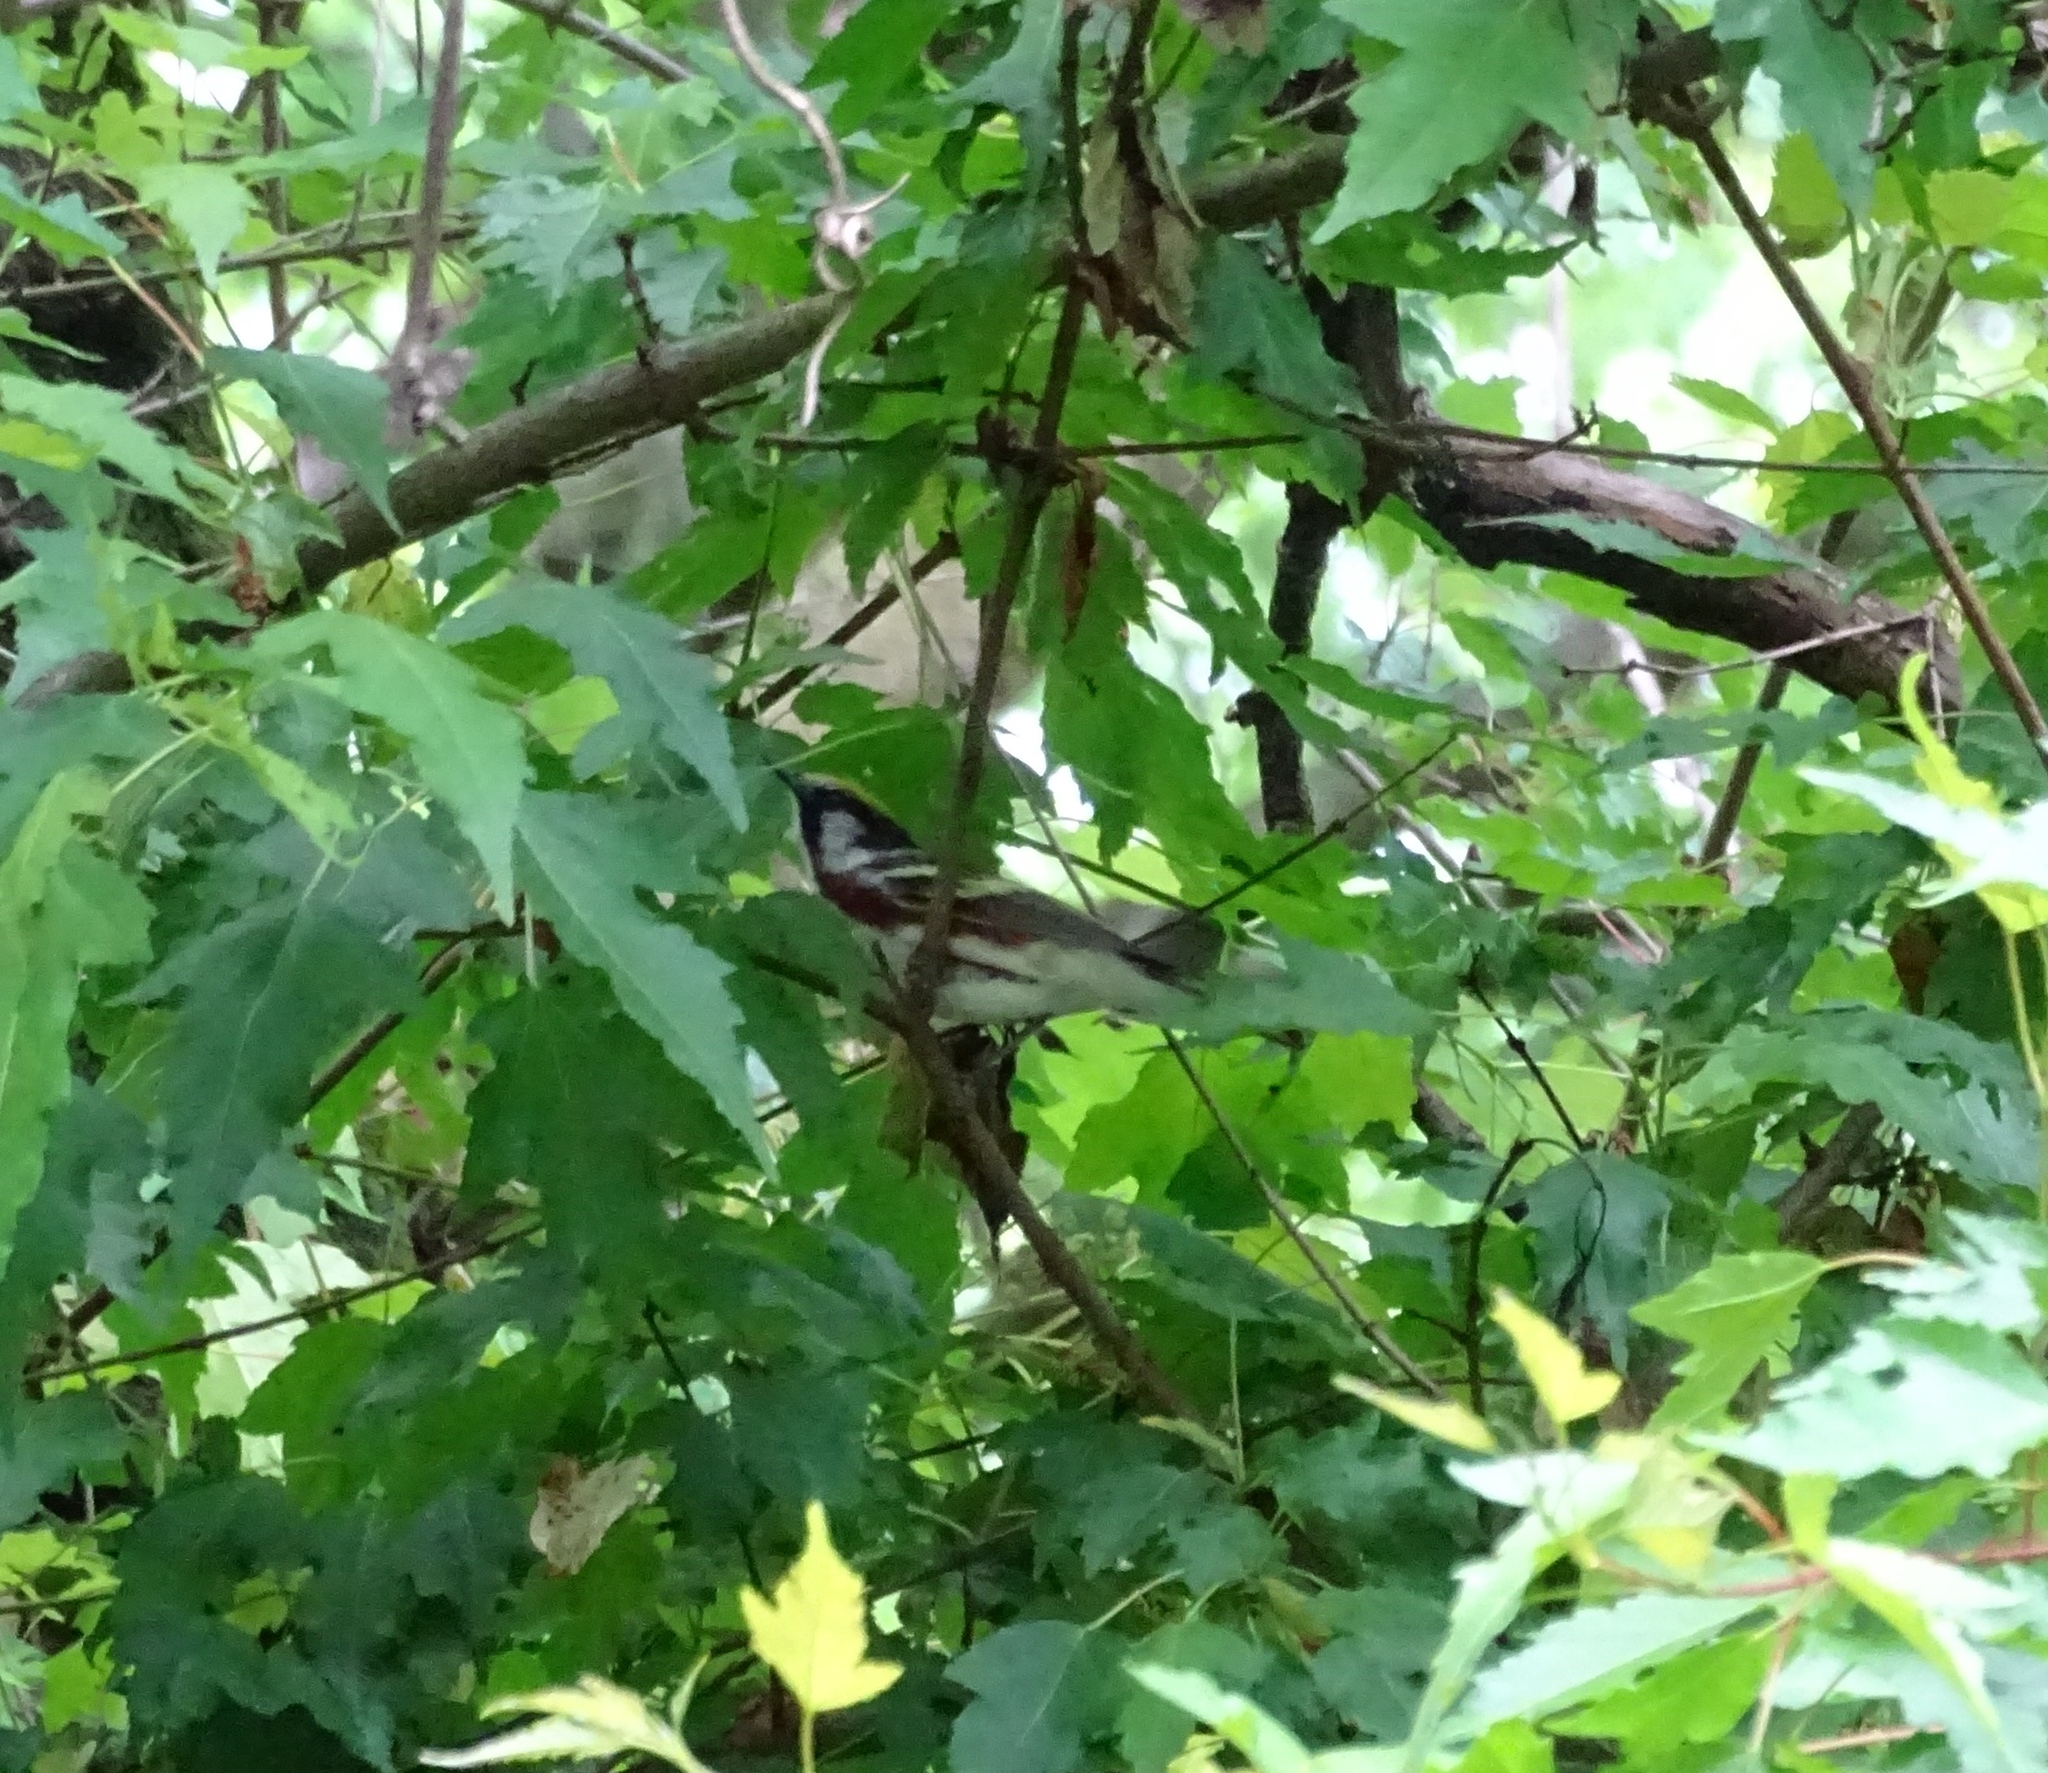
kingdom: Animalia
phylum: Chordata
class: Aves
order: Passeriformes
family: Parulidae
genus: Setophaga
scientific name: Setophaga pensylvanica
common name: Chestnut-sided warbler
